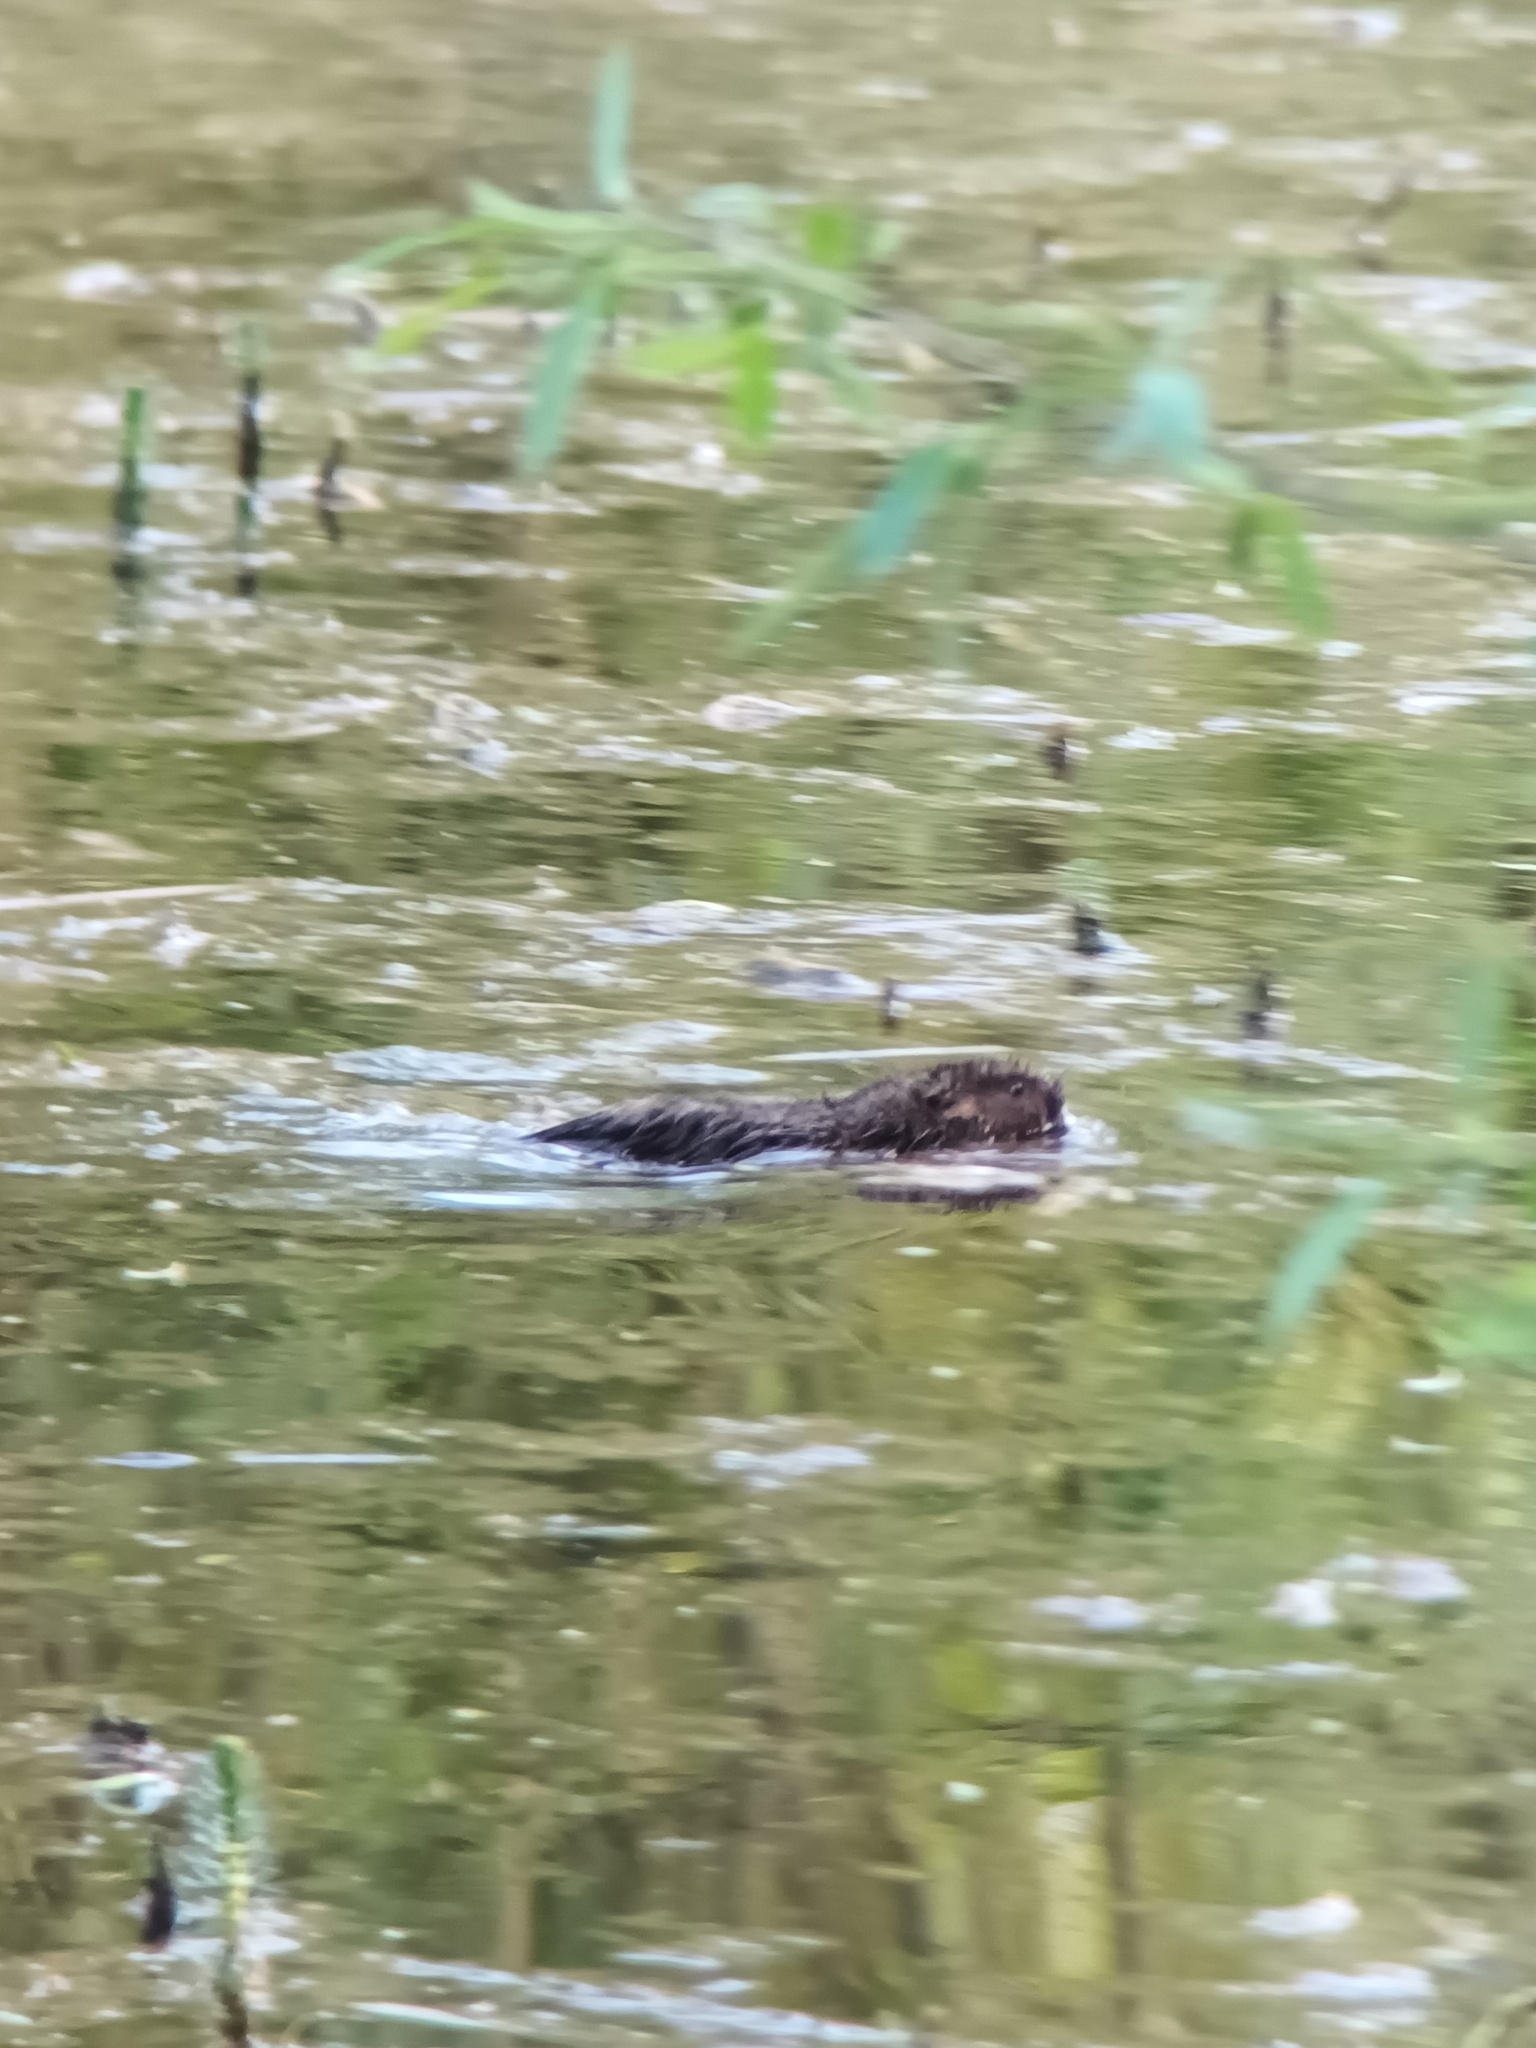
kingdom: Animalia
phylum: Chordata
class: Mammalia
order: Rodentia
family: Cricetidae
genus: Arvicola
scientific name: Arvicola amphibius
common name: European water vole
